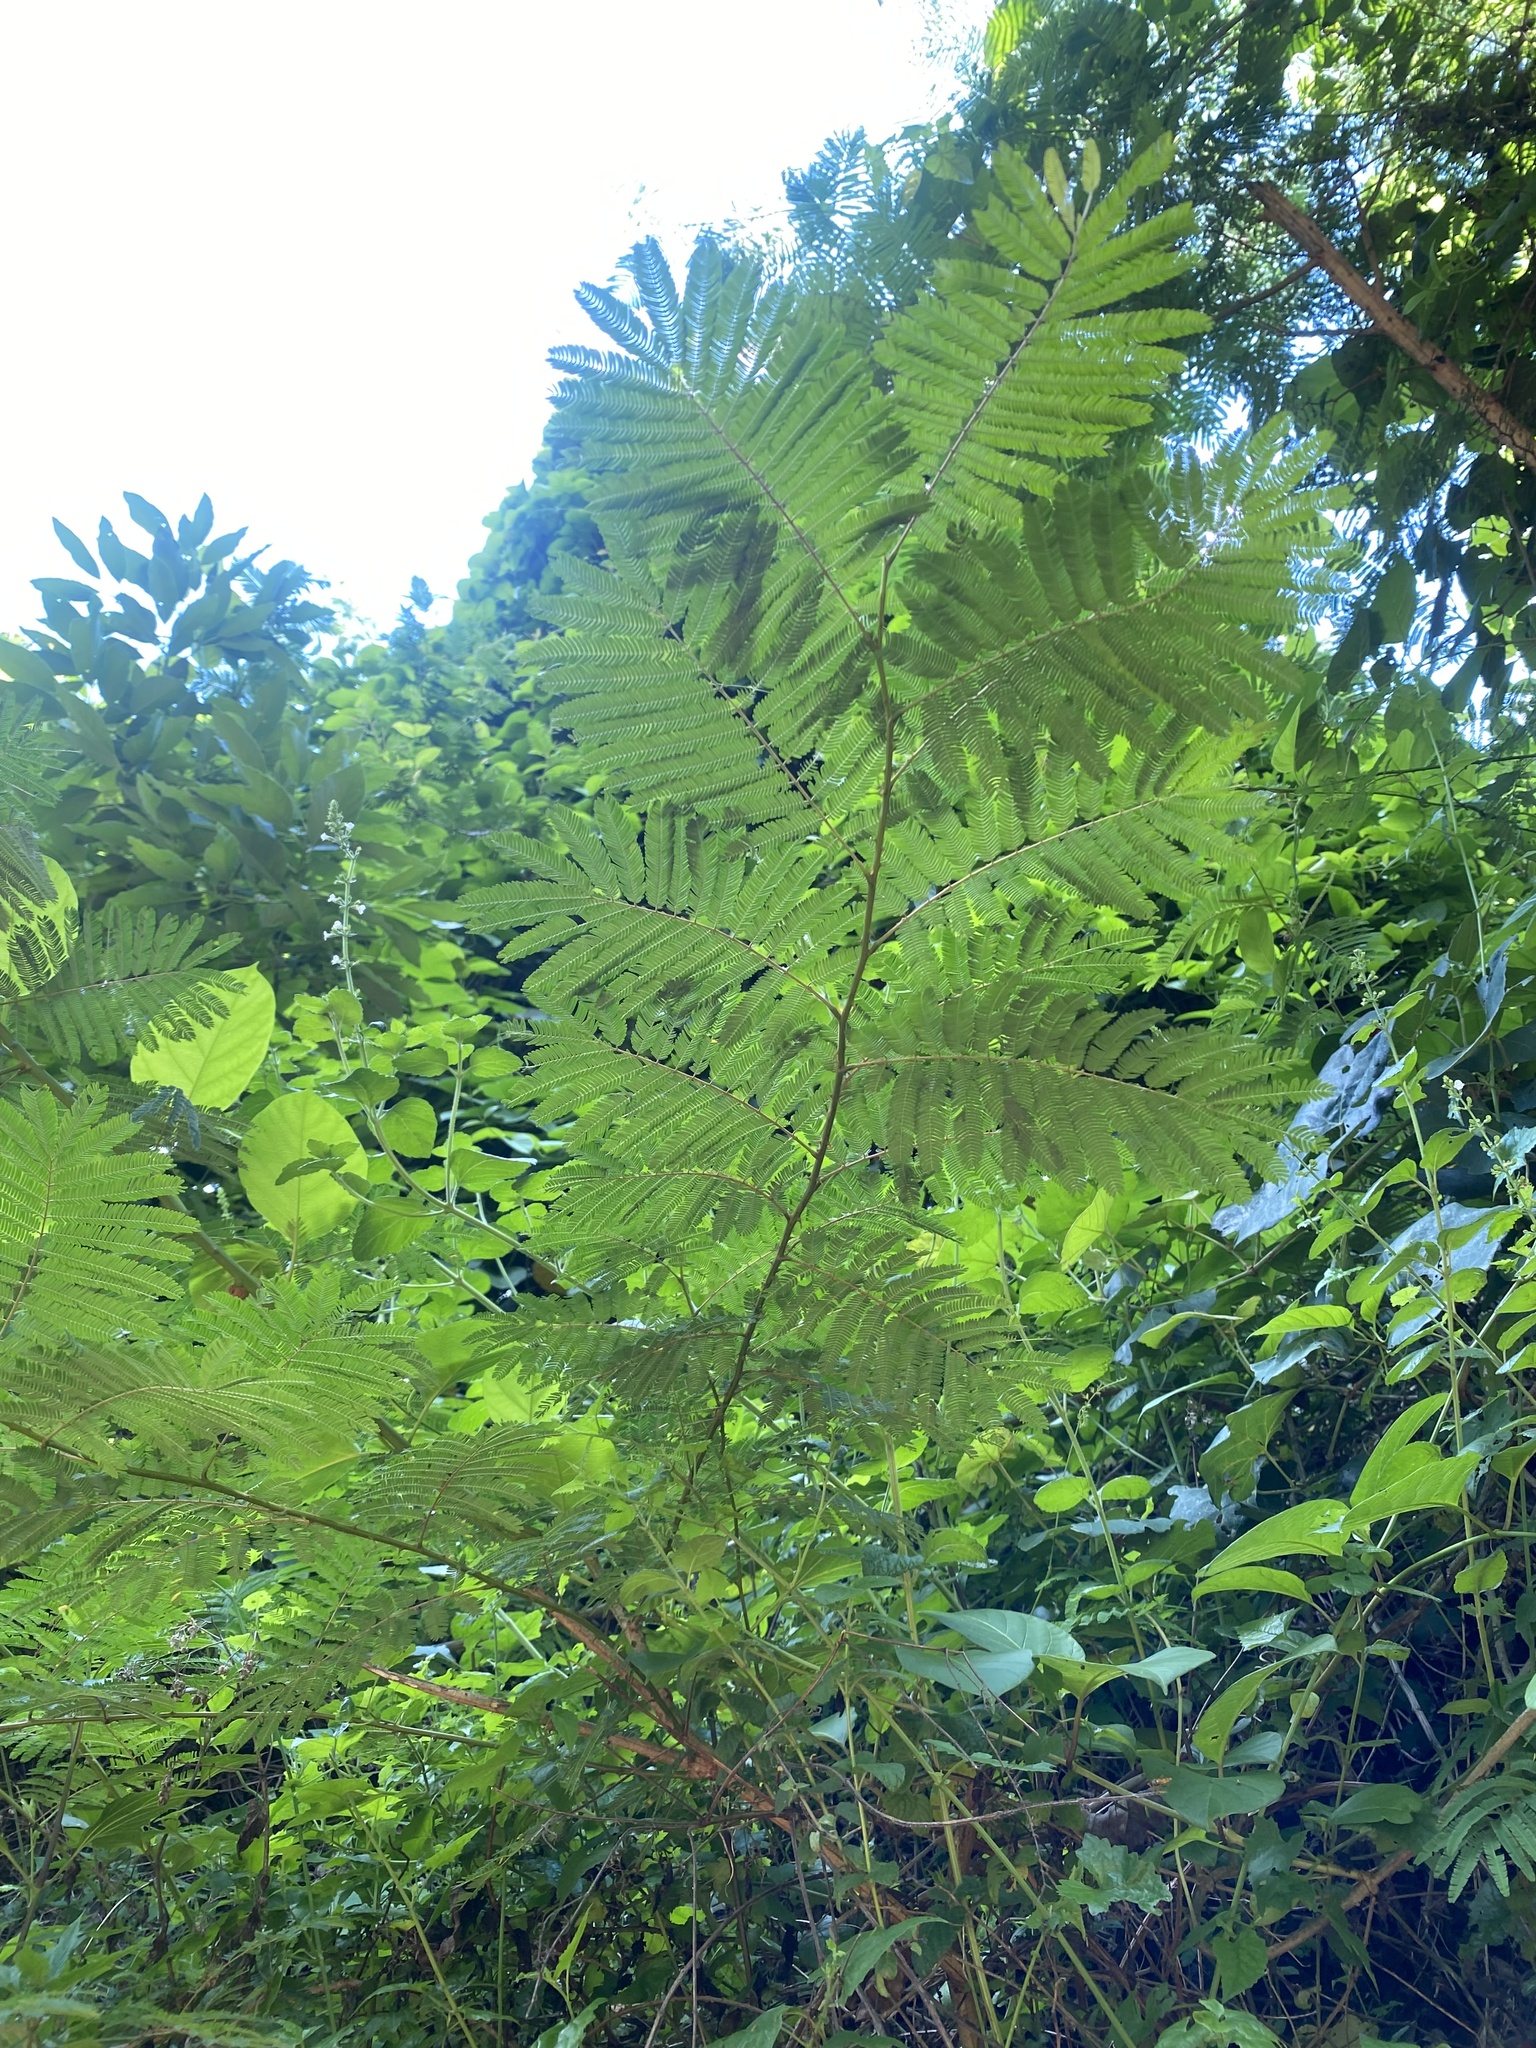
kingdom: Plantae
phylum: Tracheophyta
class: Magnoliopsida
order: Fabales
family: Fabaceae
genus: Senegalia
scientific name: Senegalia ataxacantha
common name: Flame acacia
